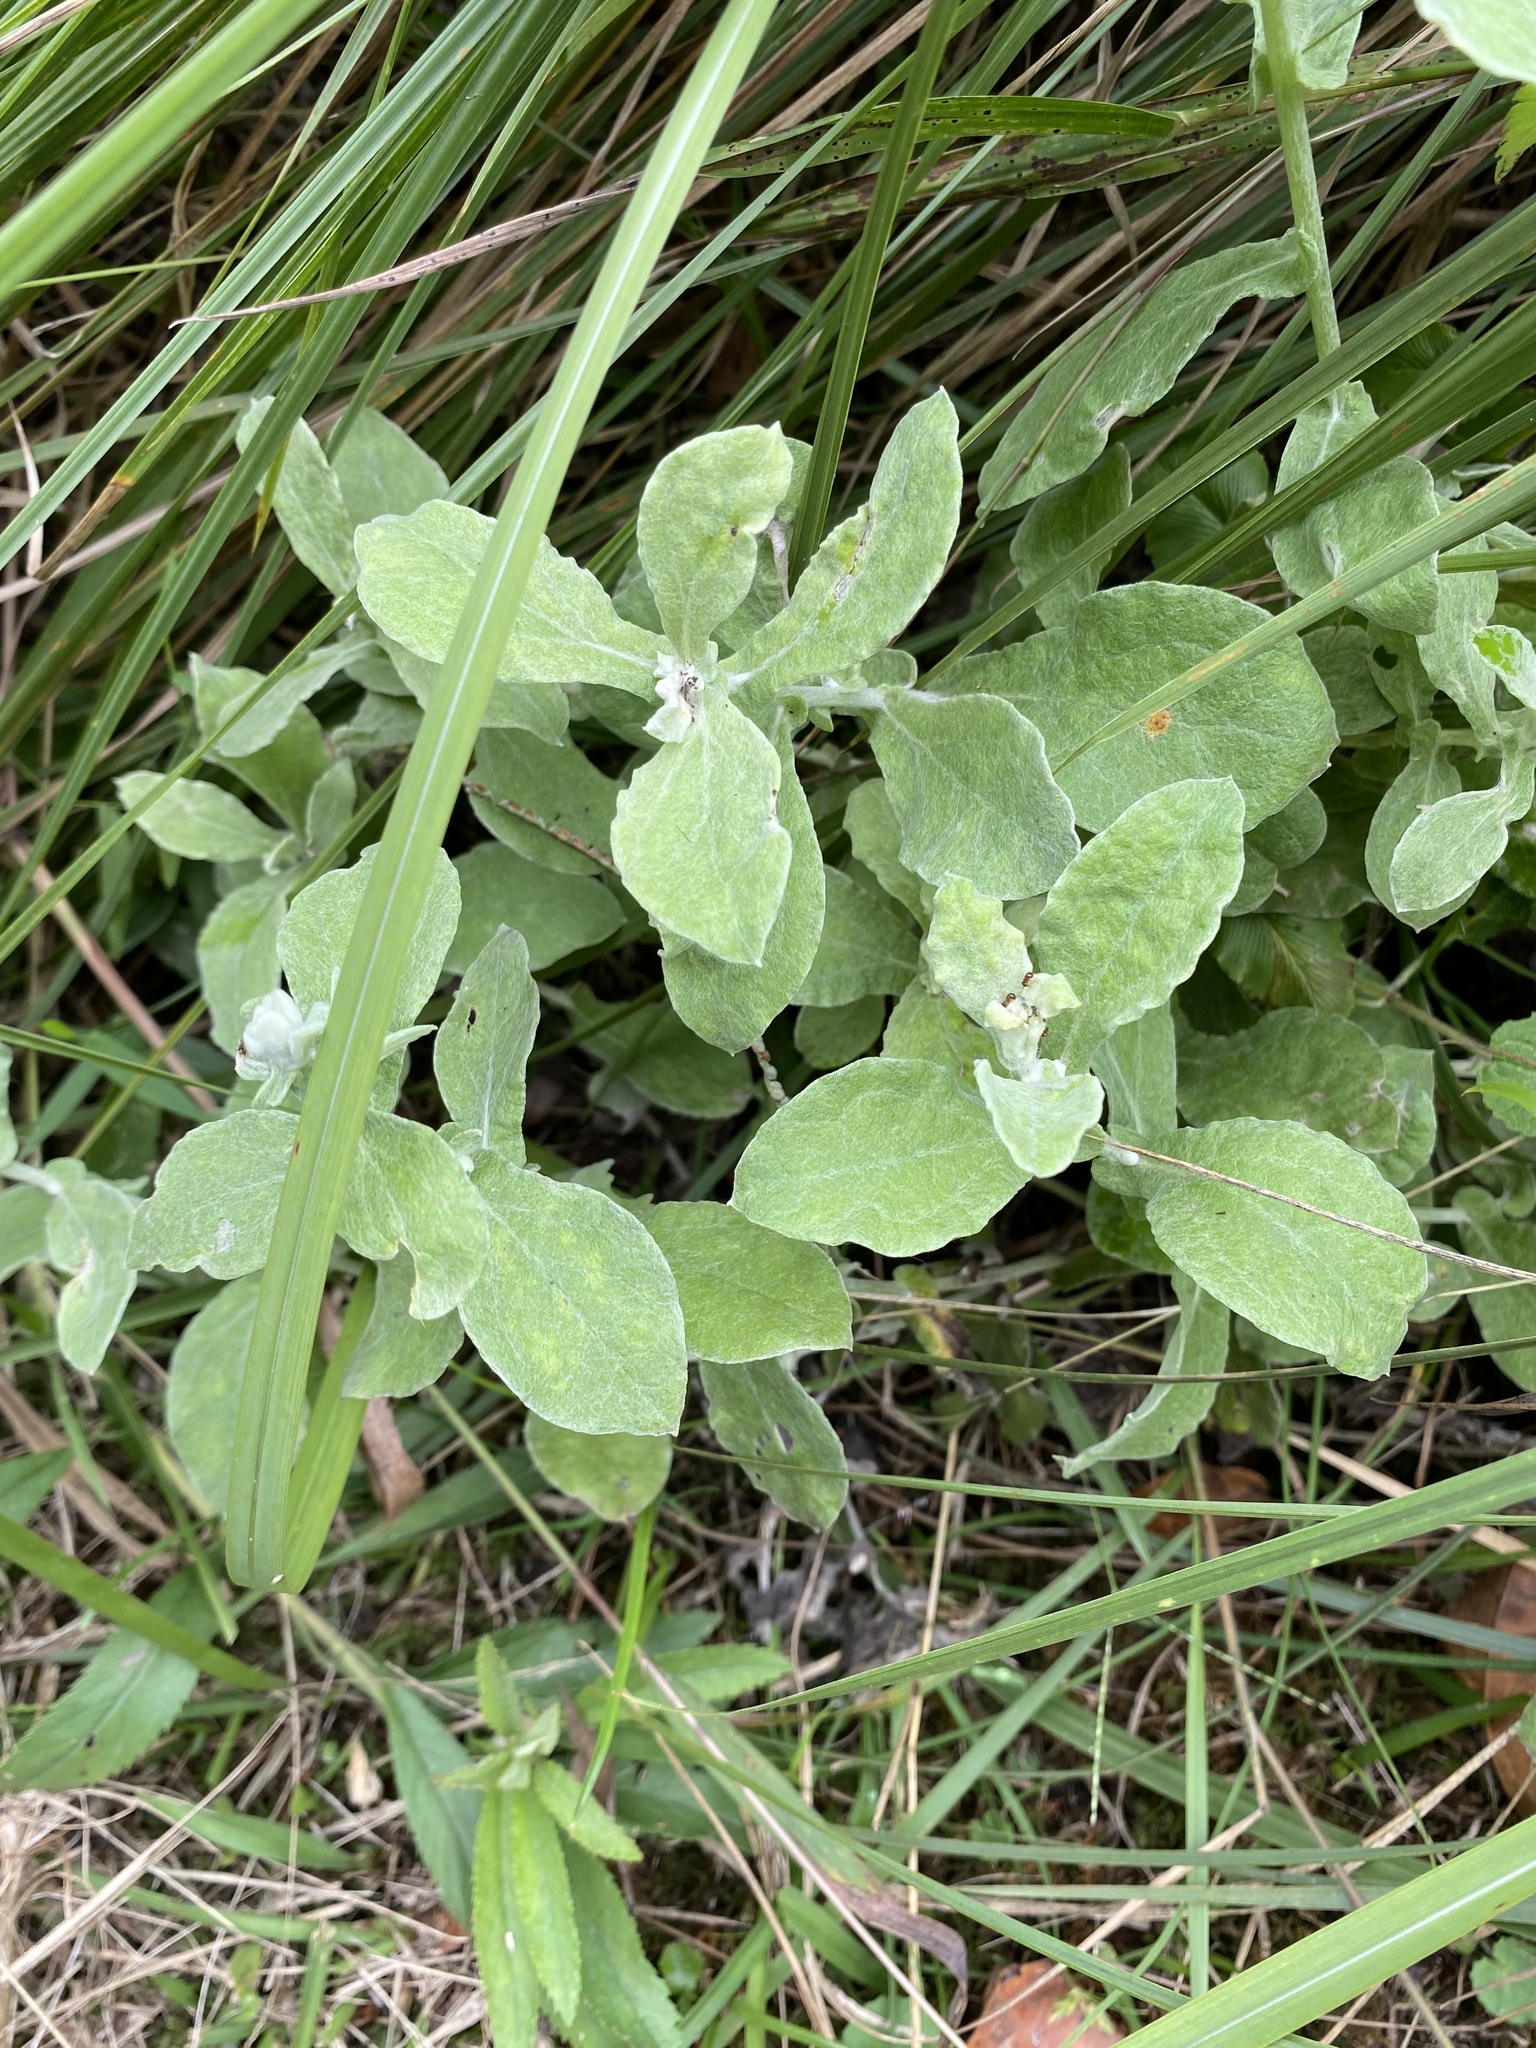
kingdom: Plantae
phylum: Tracheophyta
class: Magnoliopsida
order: Asterales
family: Asteraceae
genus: Helichrysum
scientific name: Helichrysum panduratum
